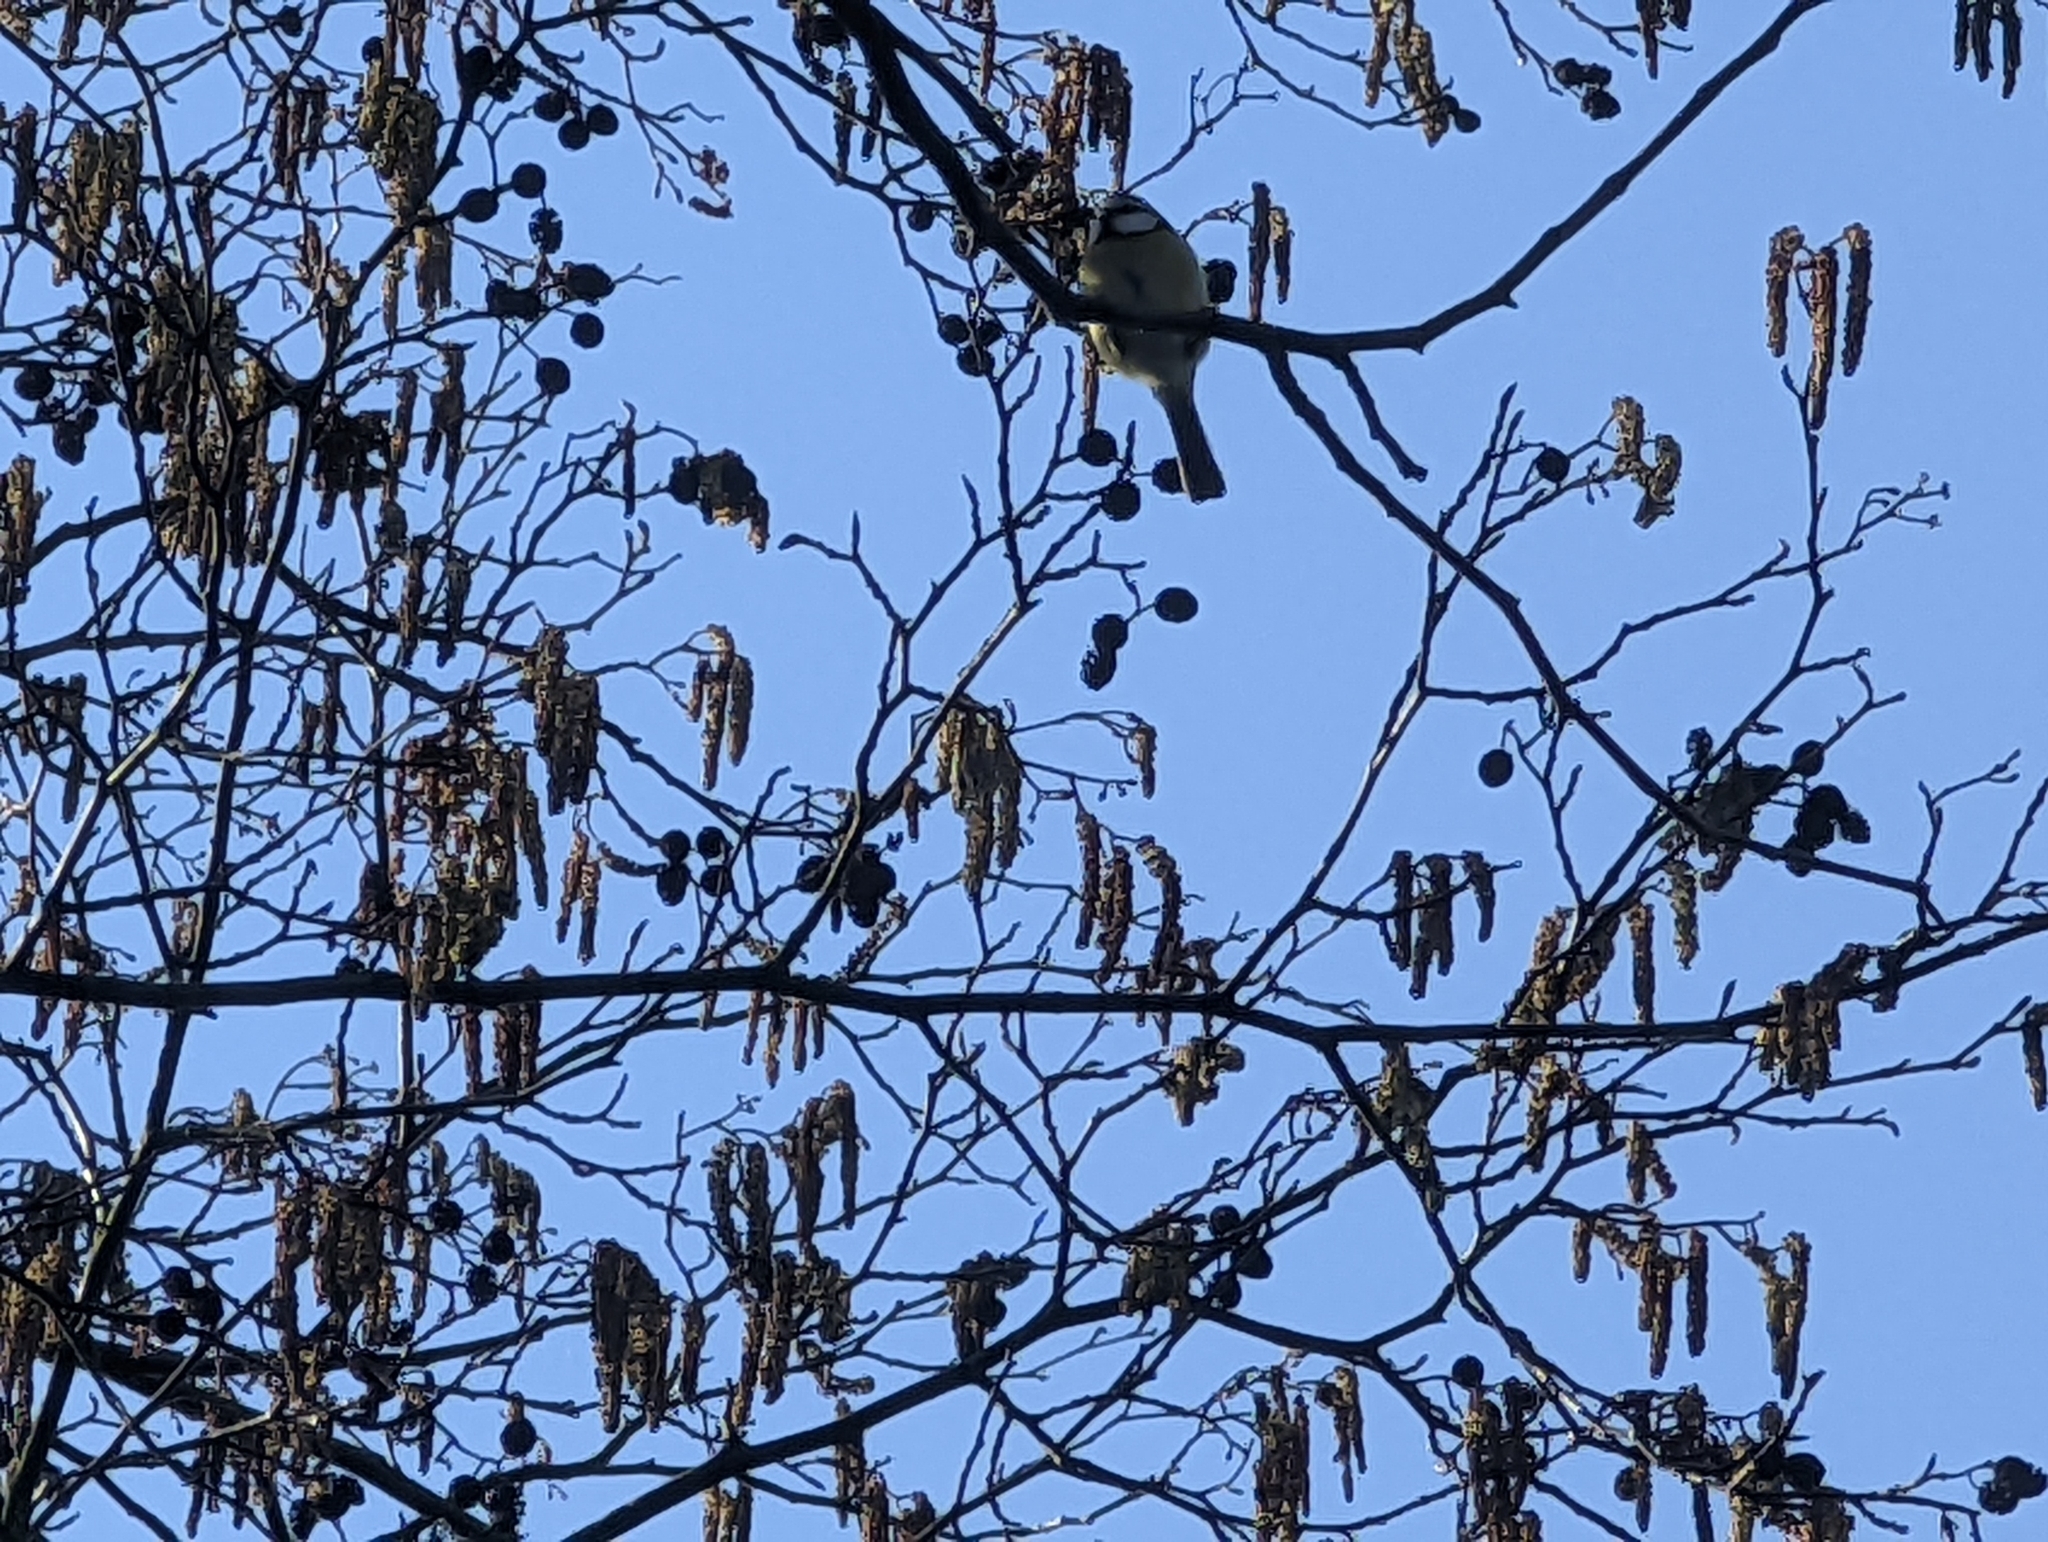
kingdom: Animalia
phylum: Chordata
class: Aves
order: Passeriformes
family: Paridae
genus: Cyanistes
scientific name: Cyanistes caeruleus
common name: Eurasian blue tit
